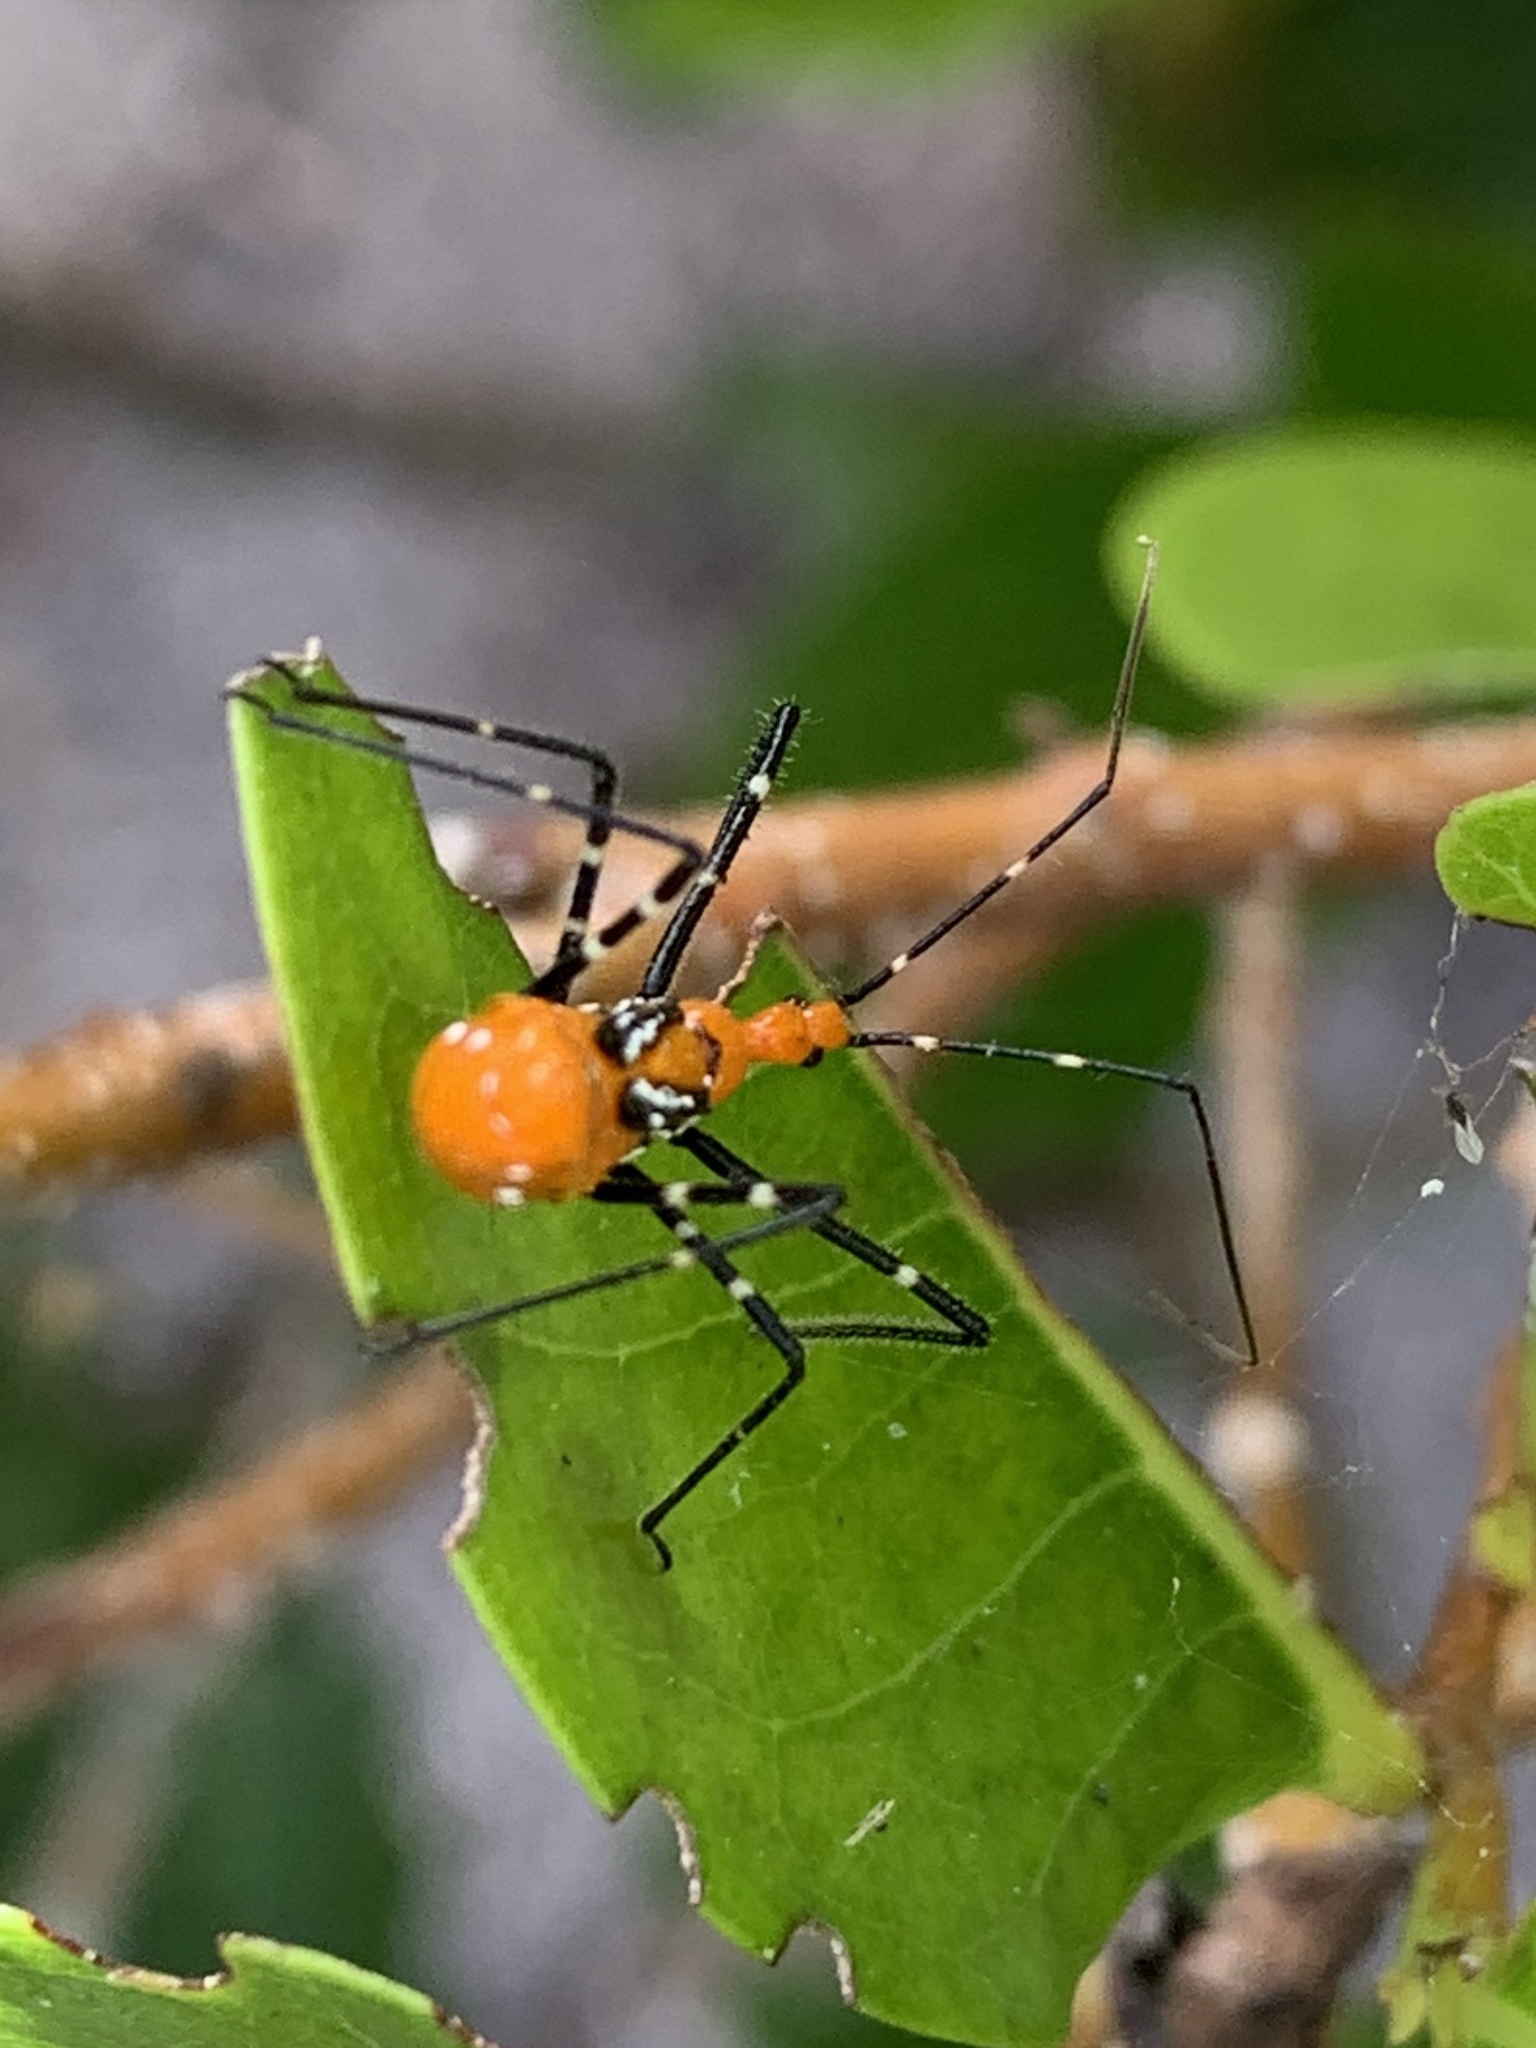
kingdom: Animalia
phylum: Arthropoda
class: Insecta
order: Hemiptera
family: Reduviidae
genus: Zelus
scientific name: Zelus longipes
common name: Milkweed assassin bug
